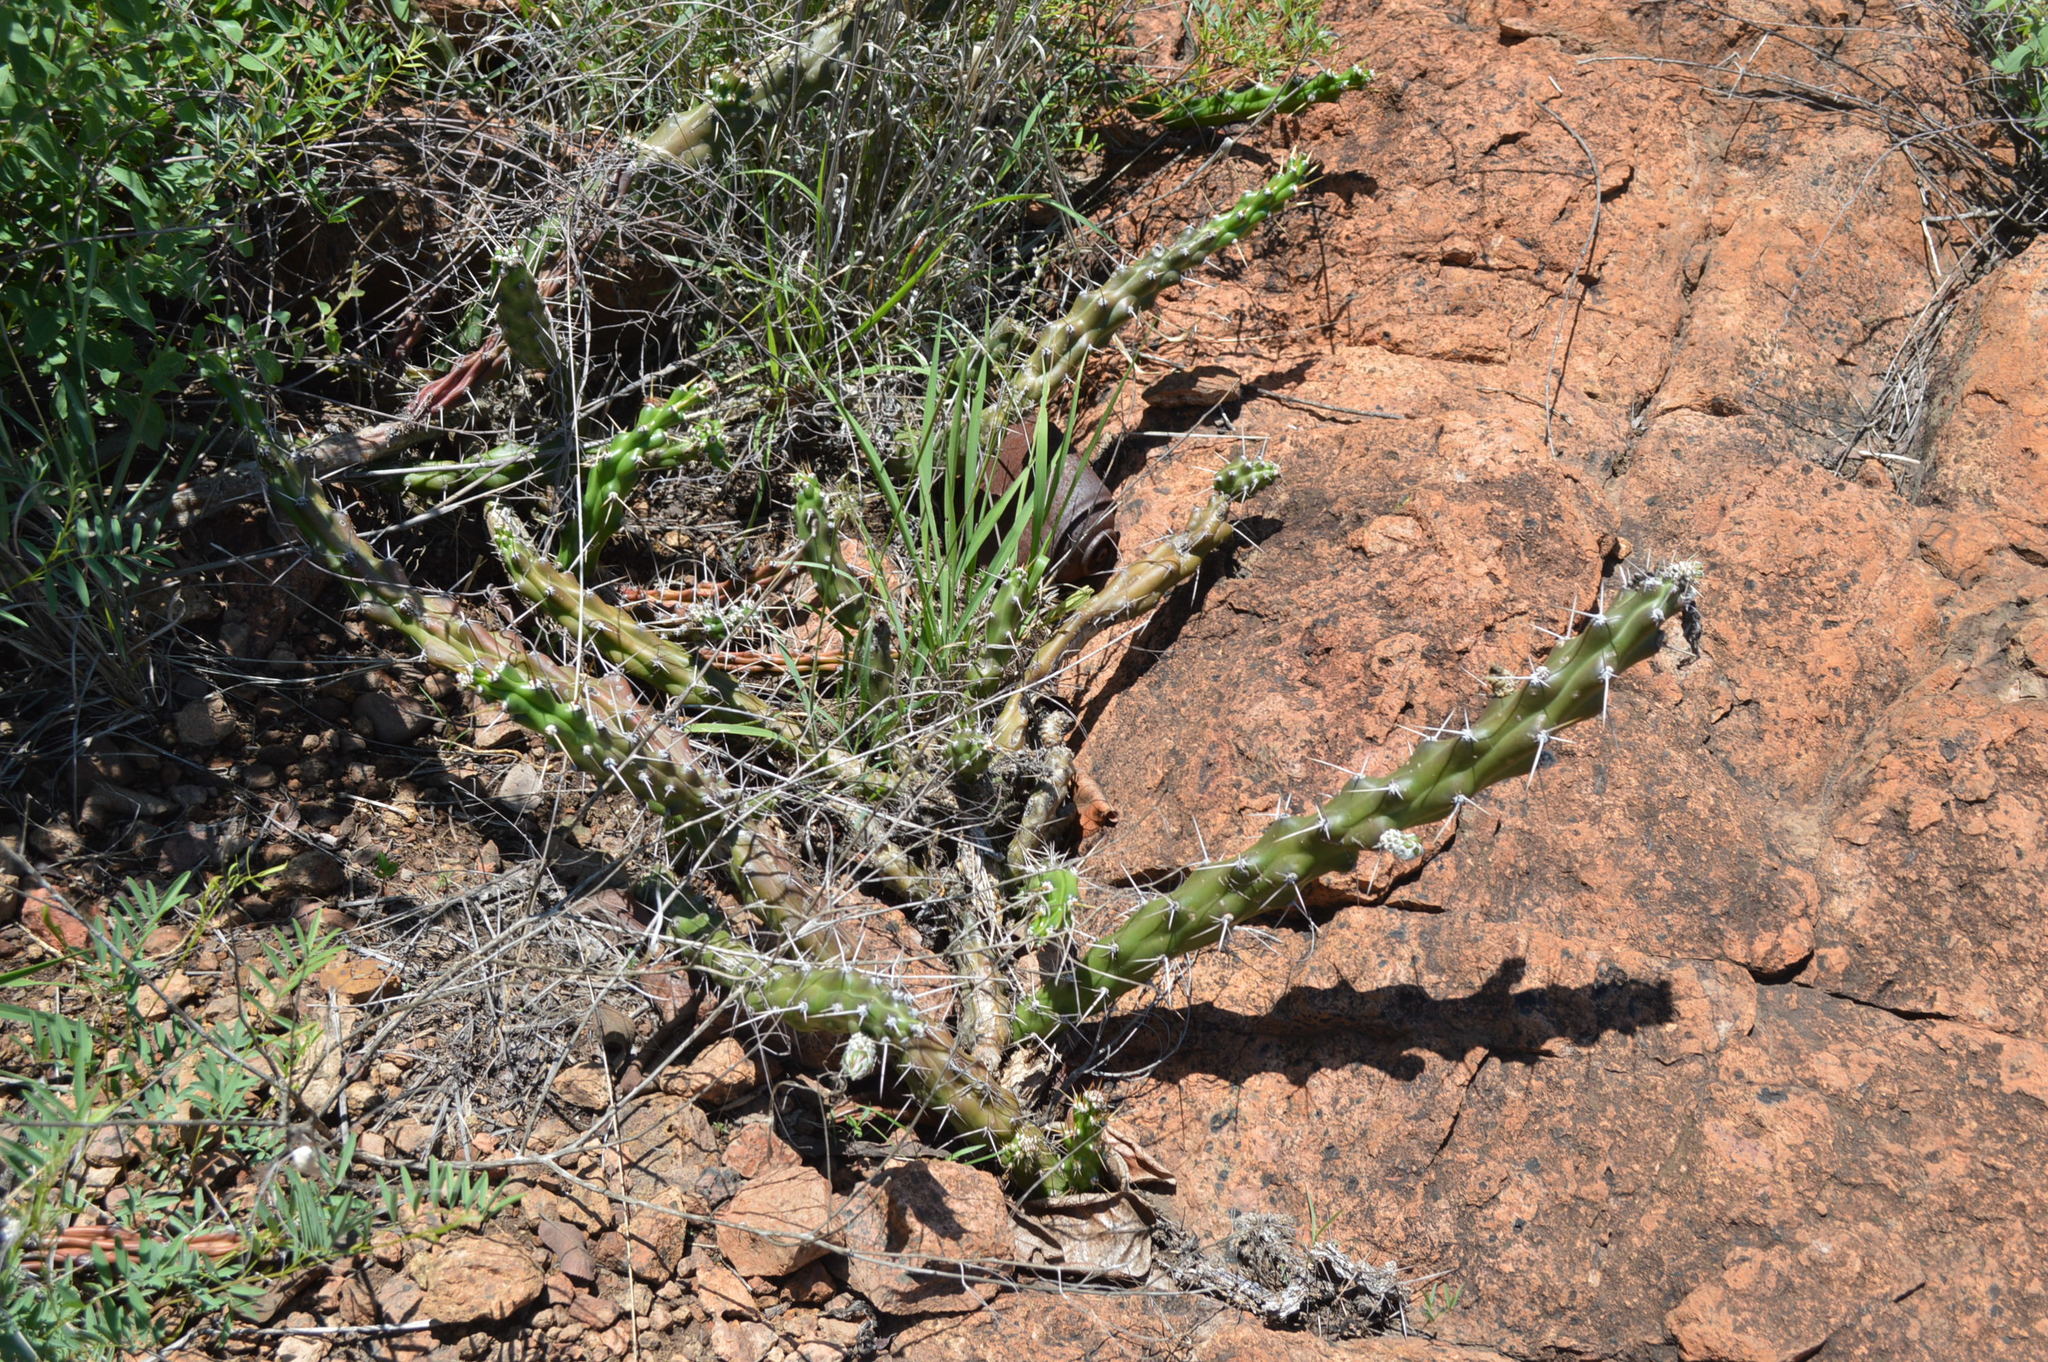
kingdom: Plantae
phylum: Tracheophyta
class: Magnoliopsida
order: Caryophyllales
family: Cactaceae
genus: Harrisia
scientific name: Harrisia martinii
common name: Moon cactus
